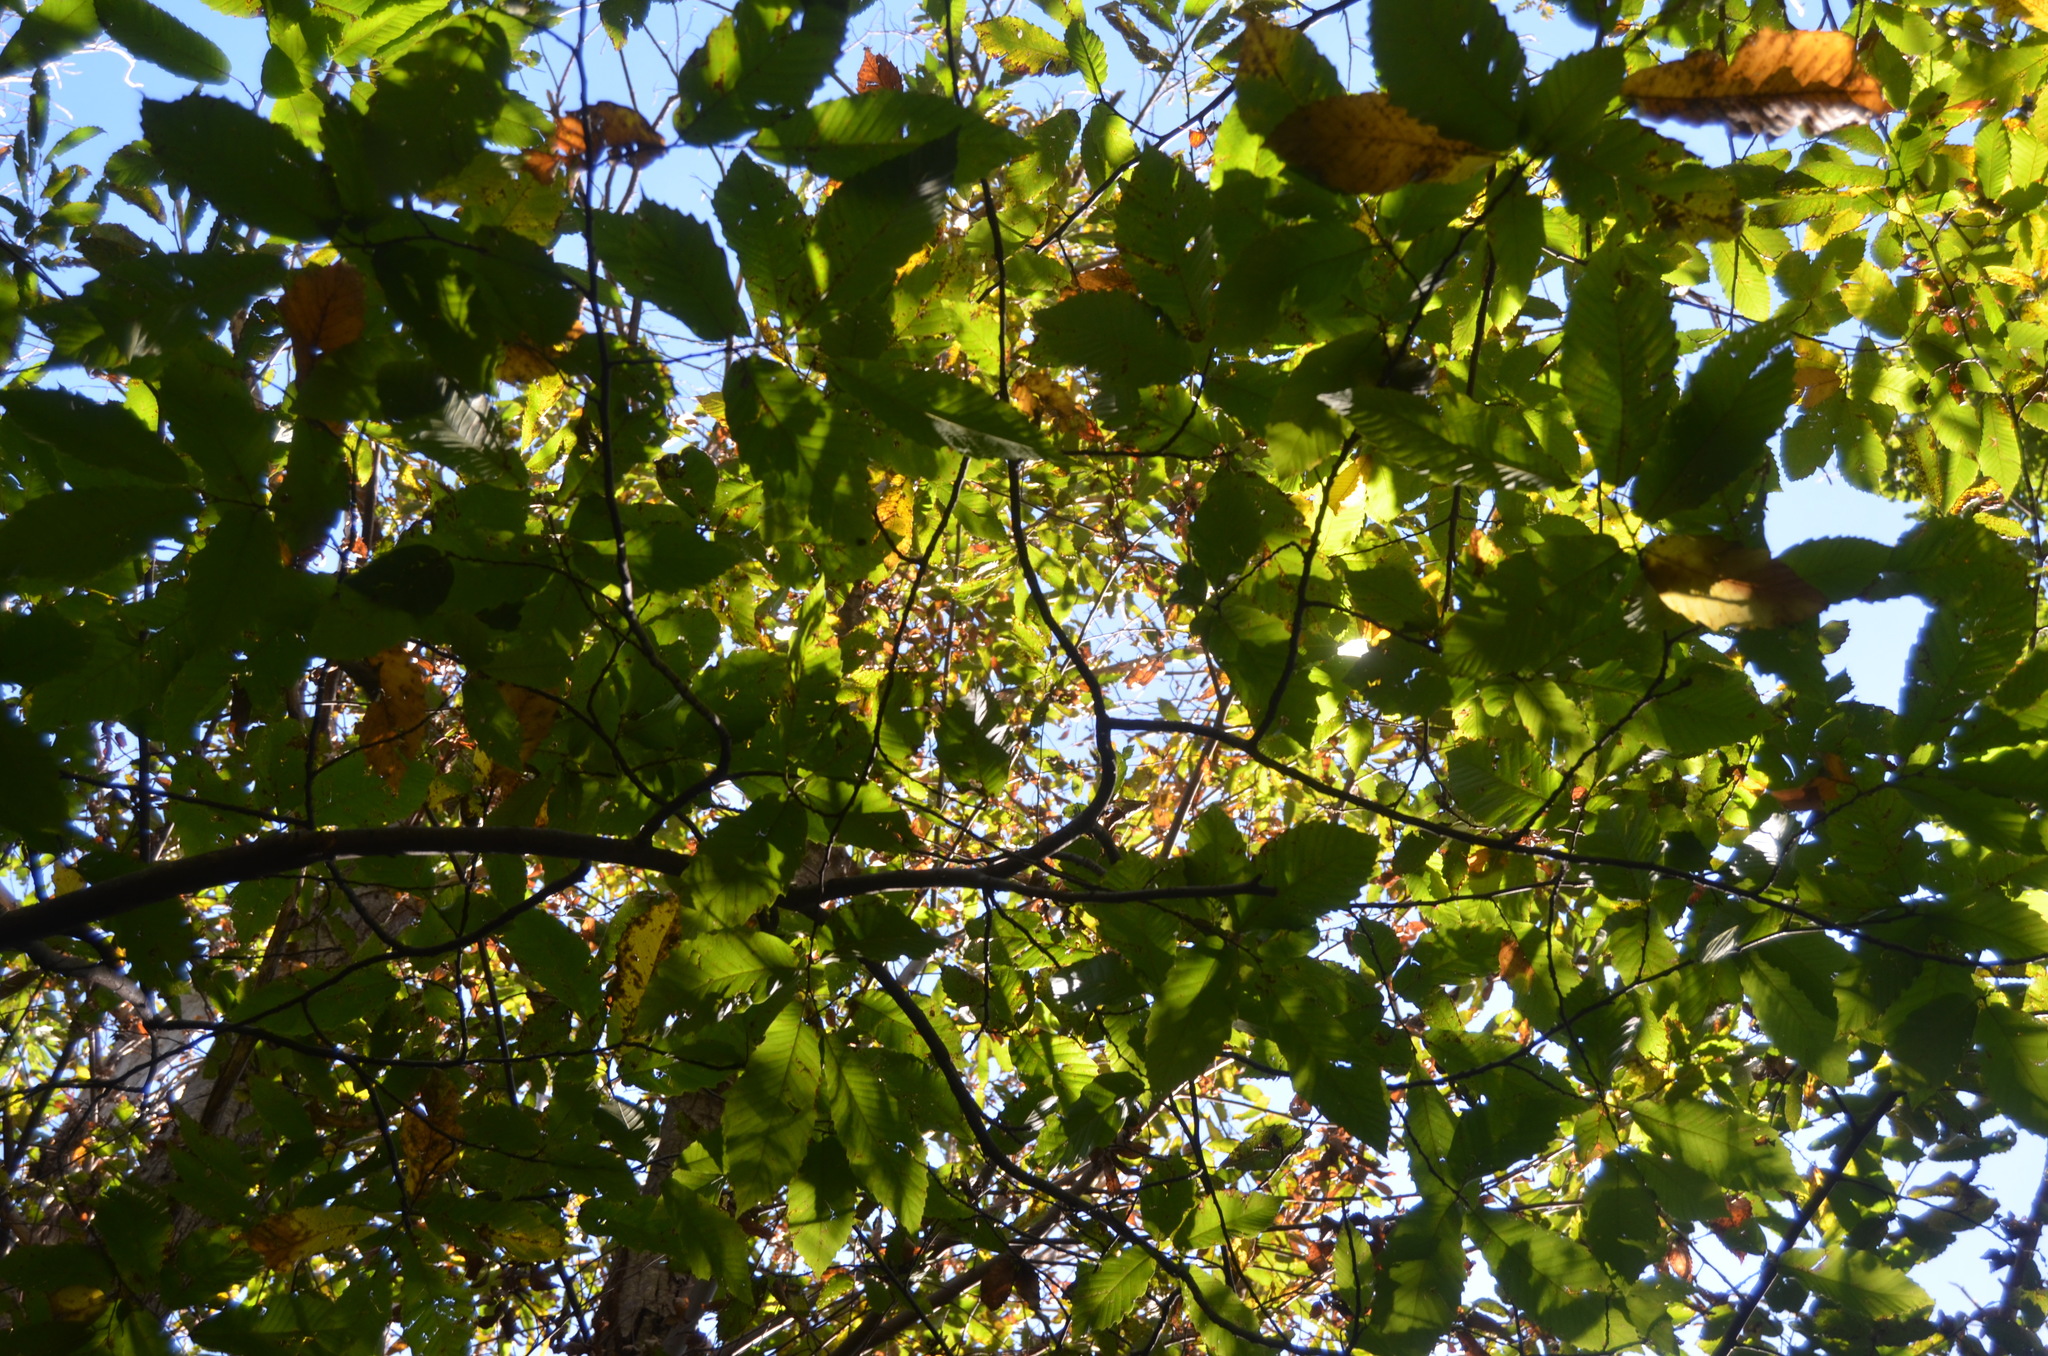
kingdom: Plantae
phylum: Tracheophyta
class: Magnoliopsida
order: Fagales
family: Fagaceae
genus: Castanea
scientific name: Castanea sativa
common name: Sweet chestnut
